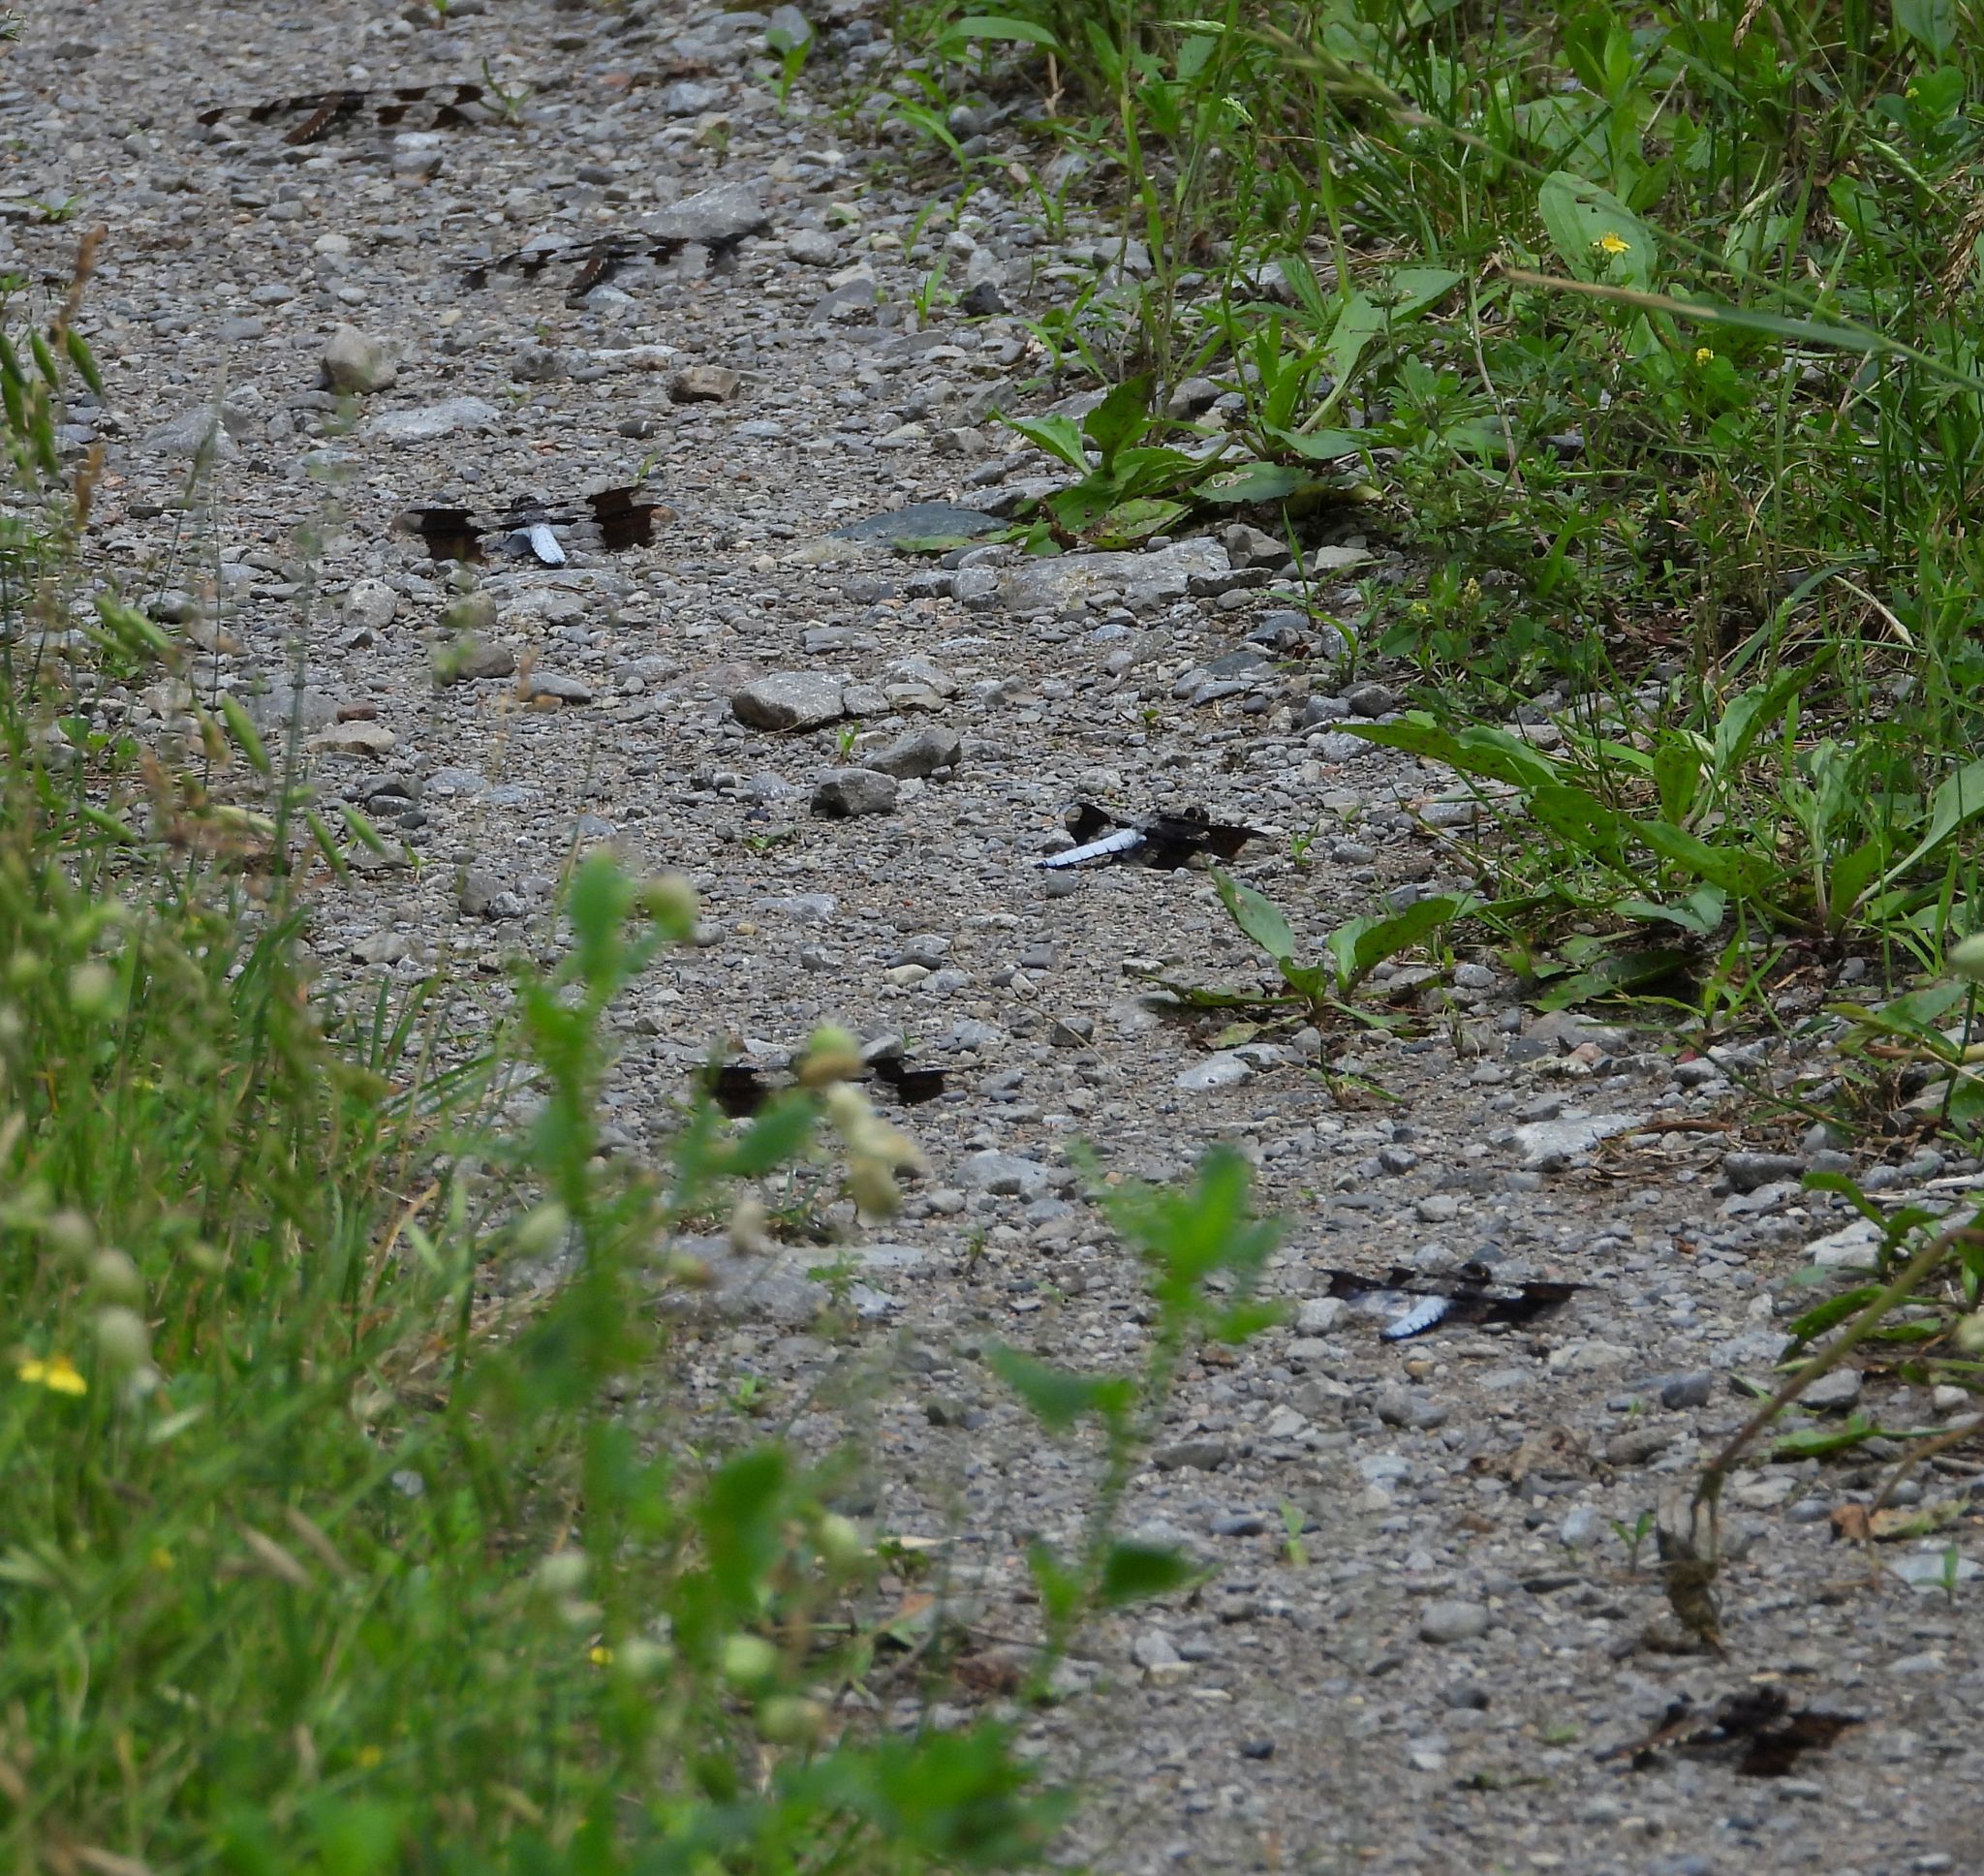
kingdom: Animalia
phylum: Arthropoda
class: Insecta
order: Odonata
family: Libellulidae
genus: Plathemis
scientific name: Plathemis lydia
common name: Common whitetail
